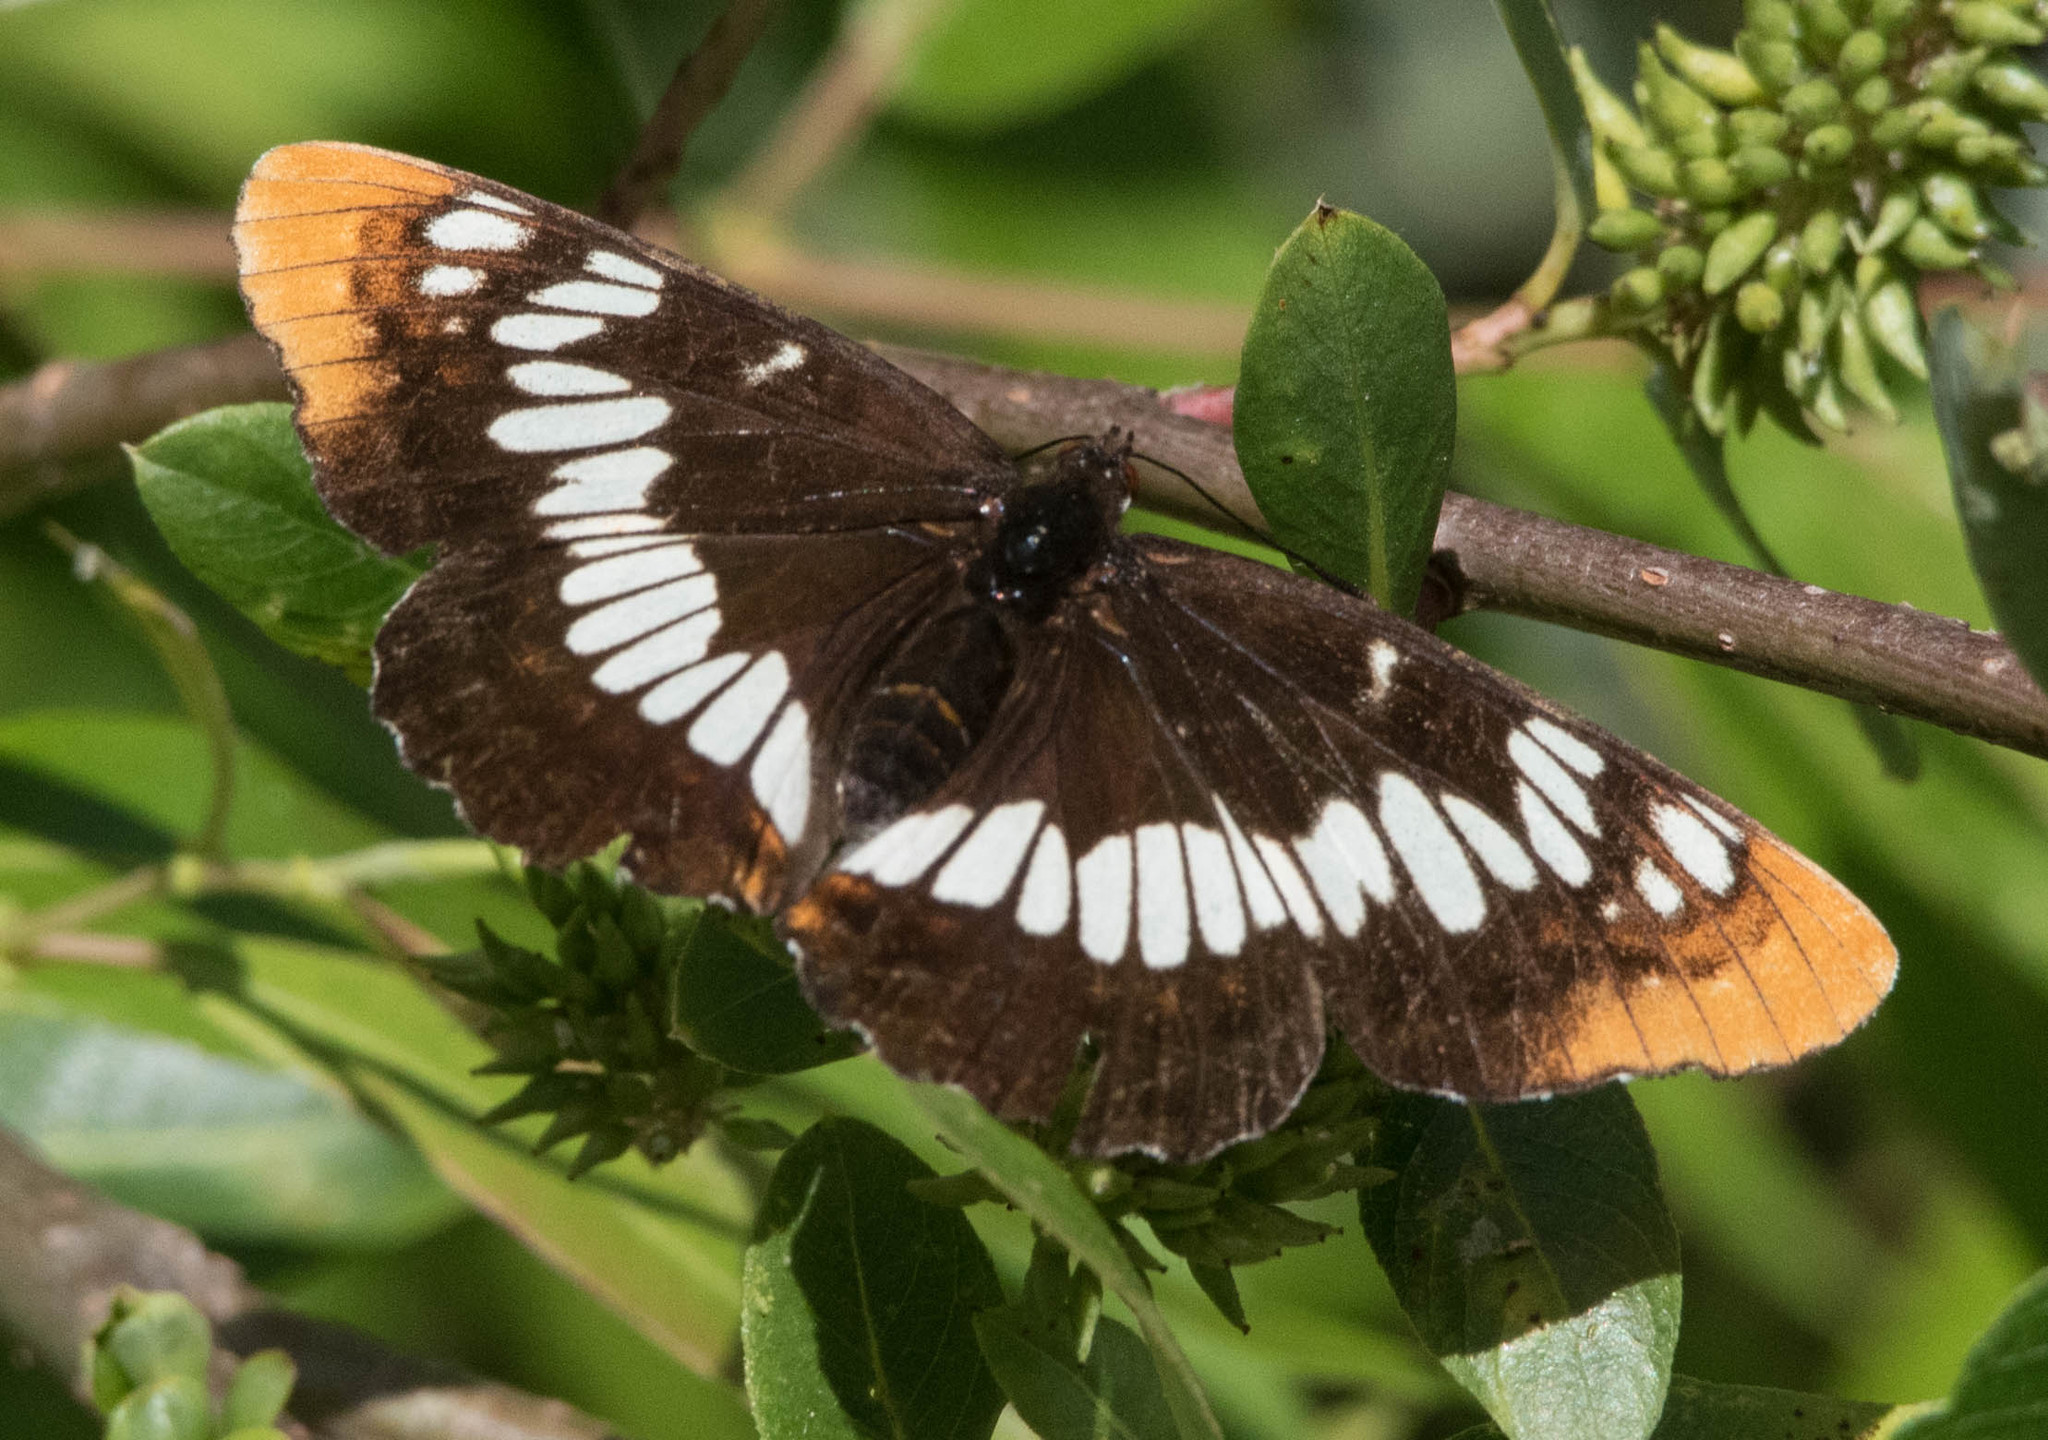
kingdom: Animalia
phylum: Arthropoda
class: Insecta
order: Lepidoptera
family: Nymphalidae
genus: Limenitis
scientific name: Limenitis lorquini
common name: Lorquin's admiral
